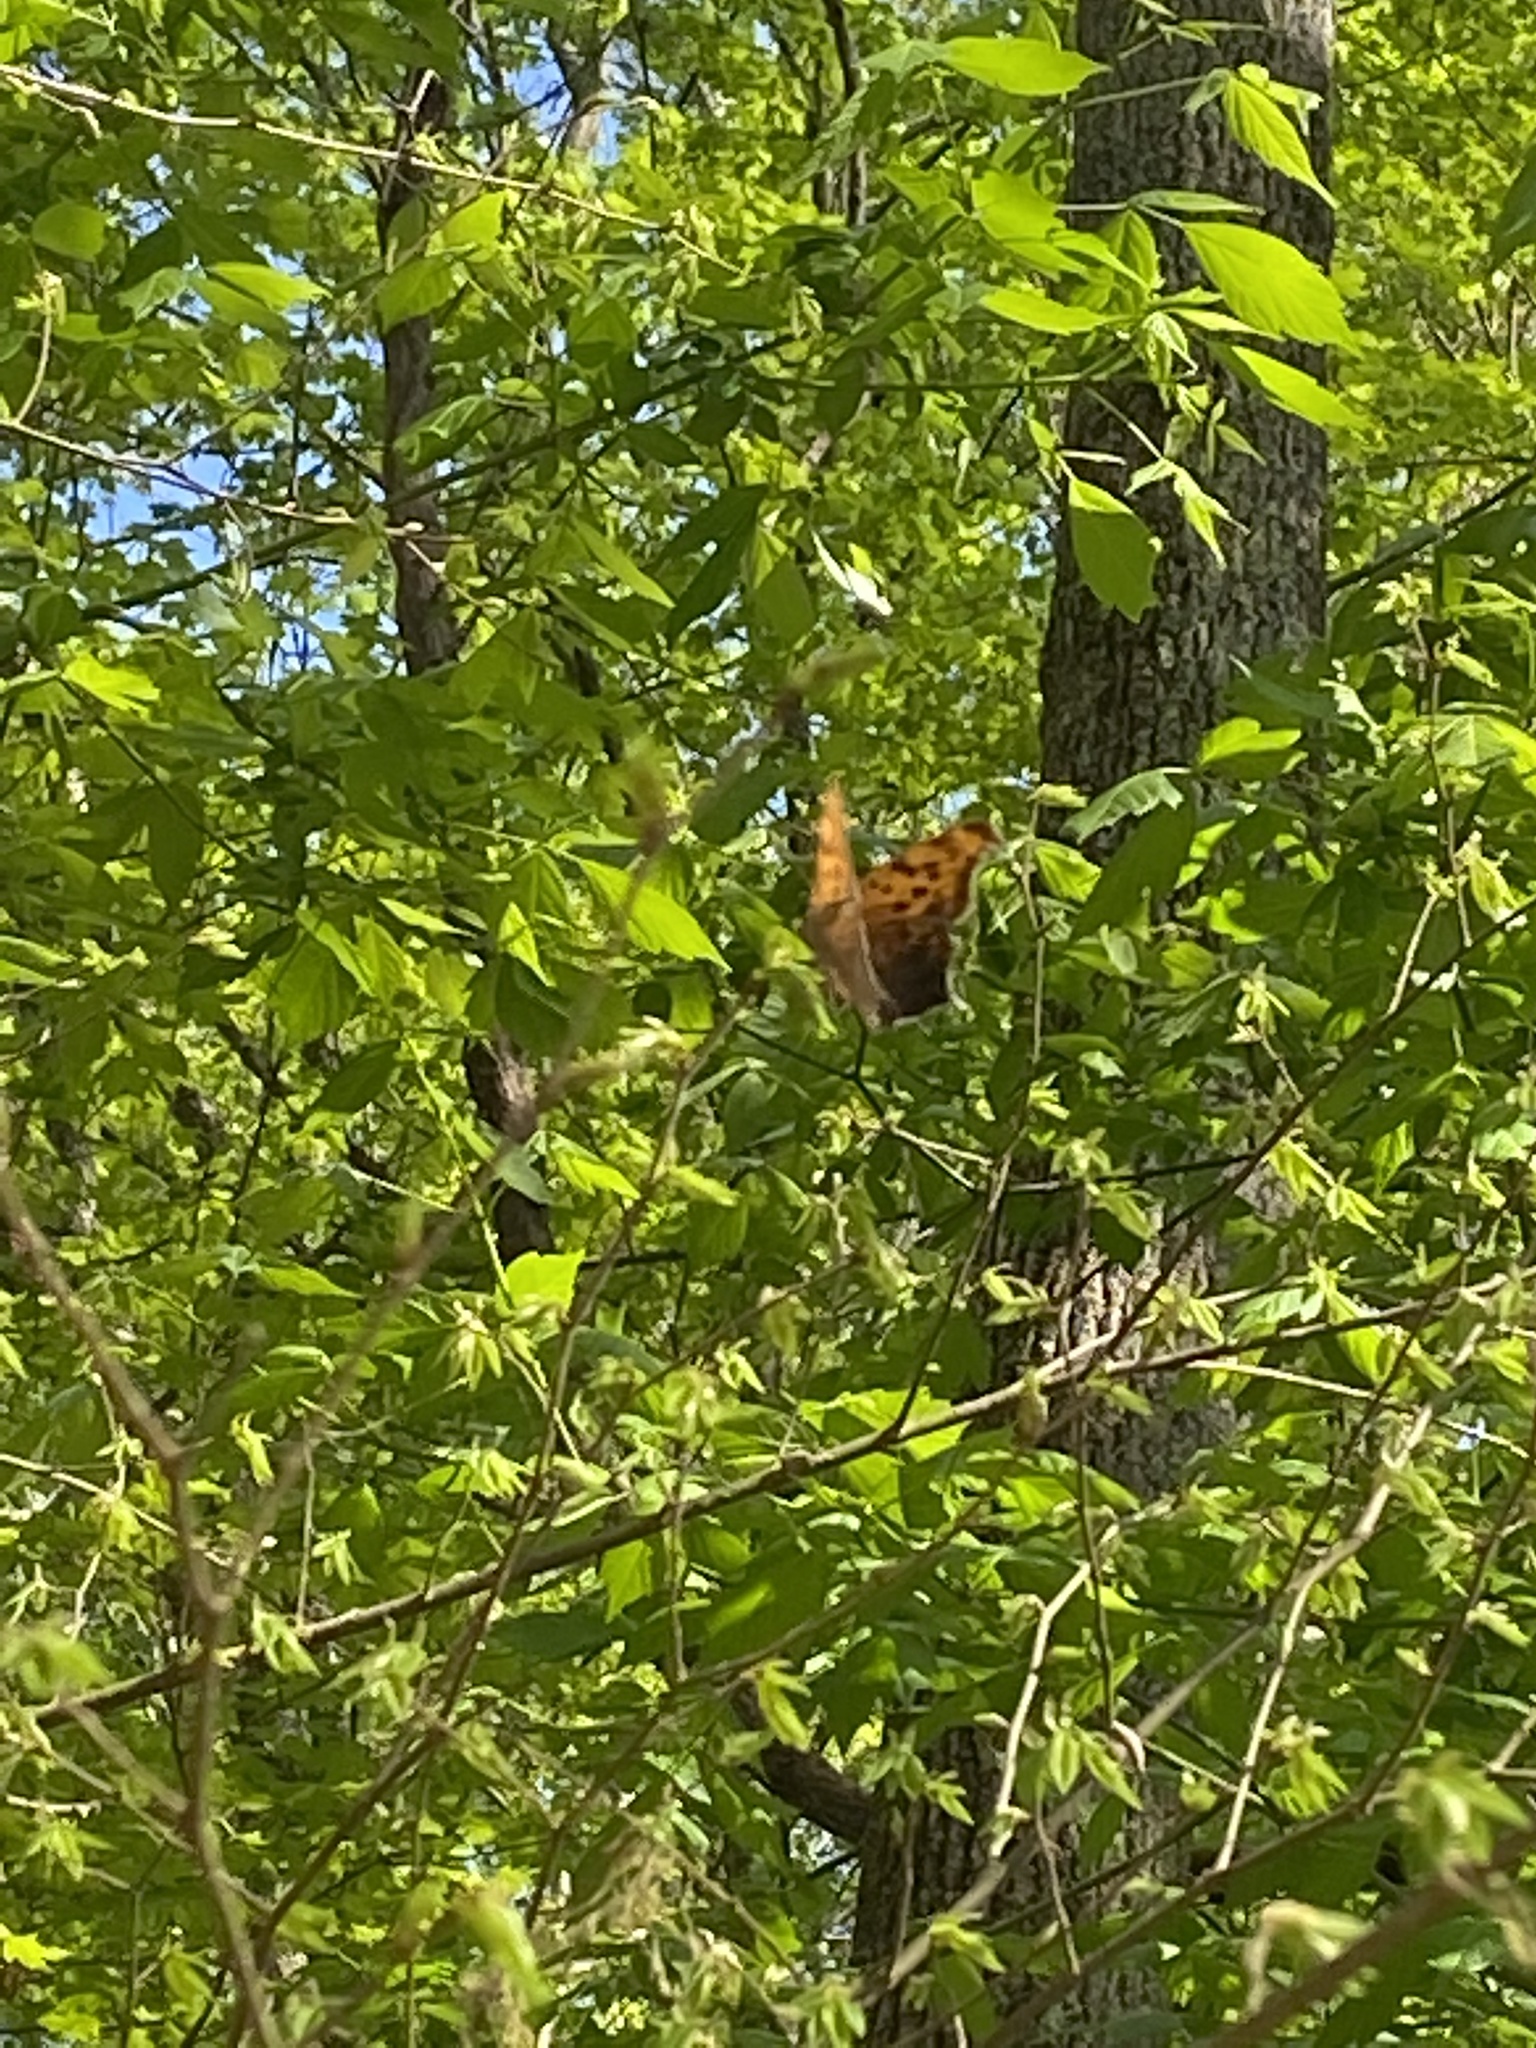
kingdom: Animalia
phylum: Arthropoda
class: Insecta
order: Lepidoptera
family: Nymphalidae
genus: Polygonia
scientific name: Polygonia interrogationis
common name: Question mark
